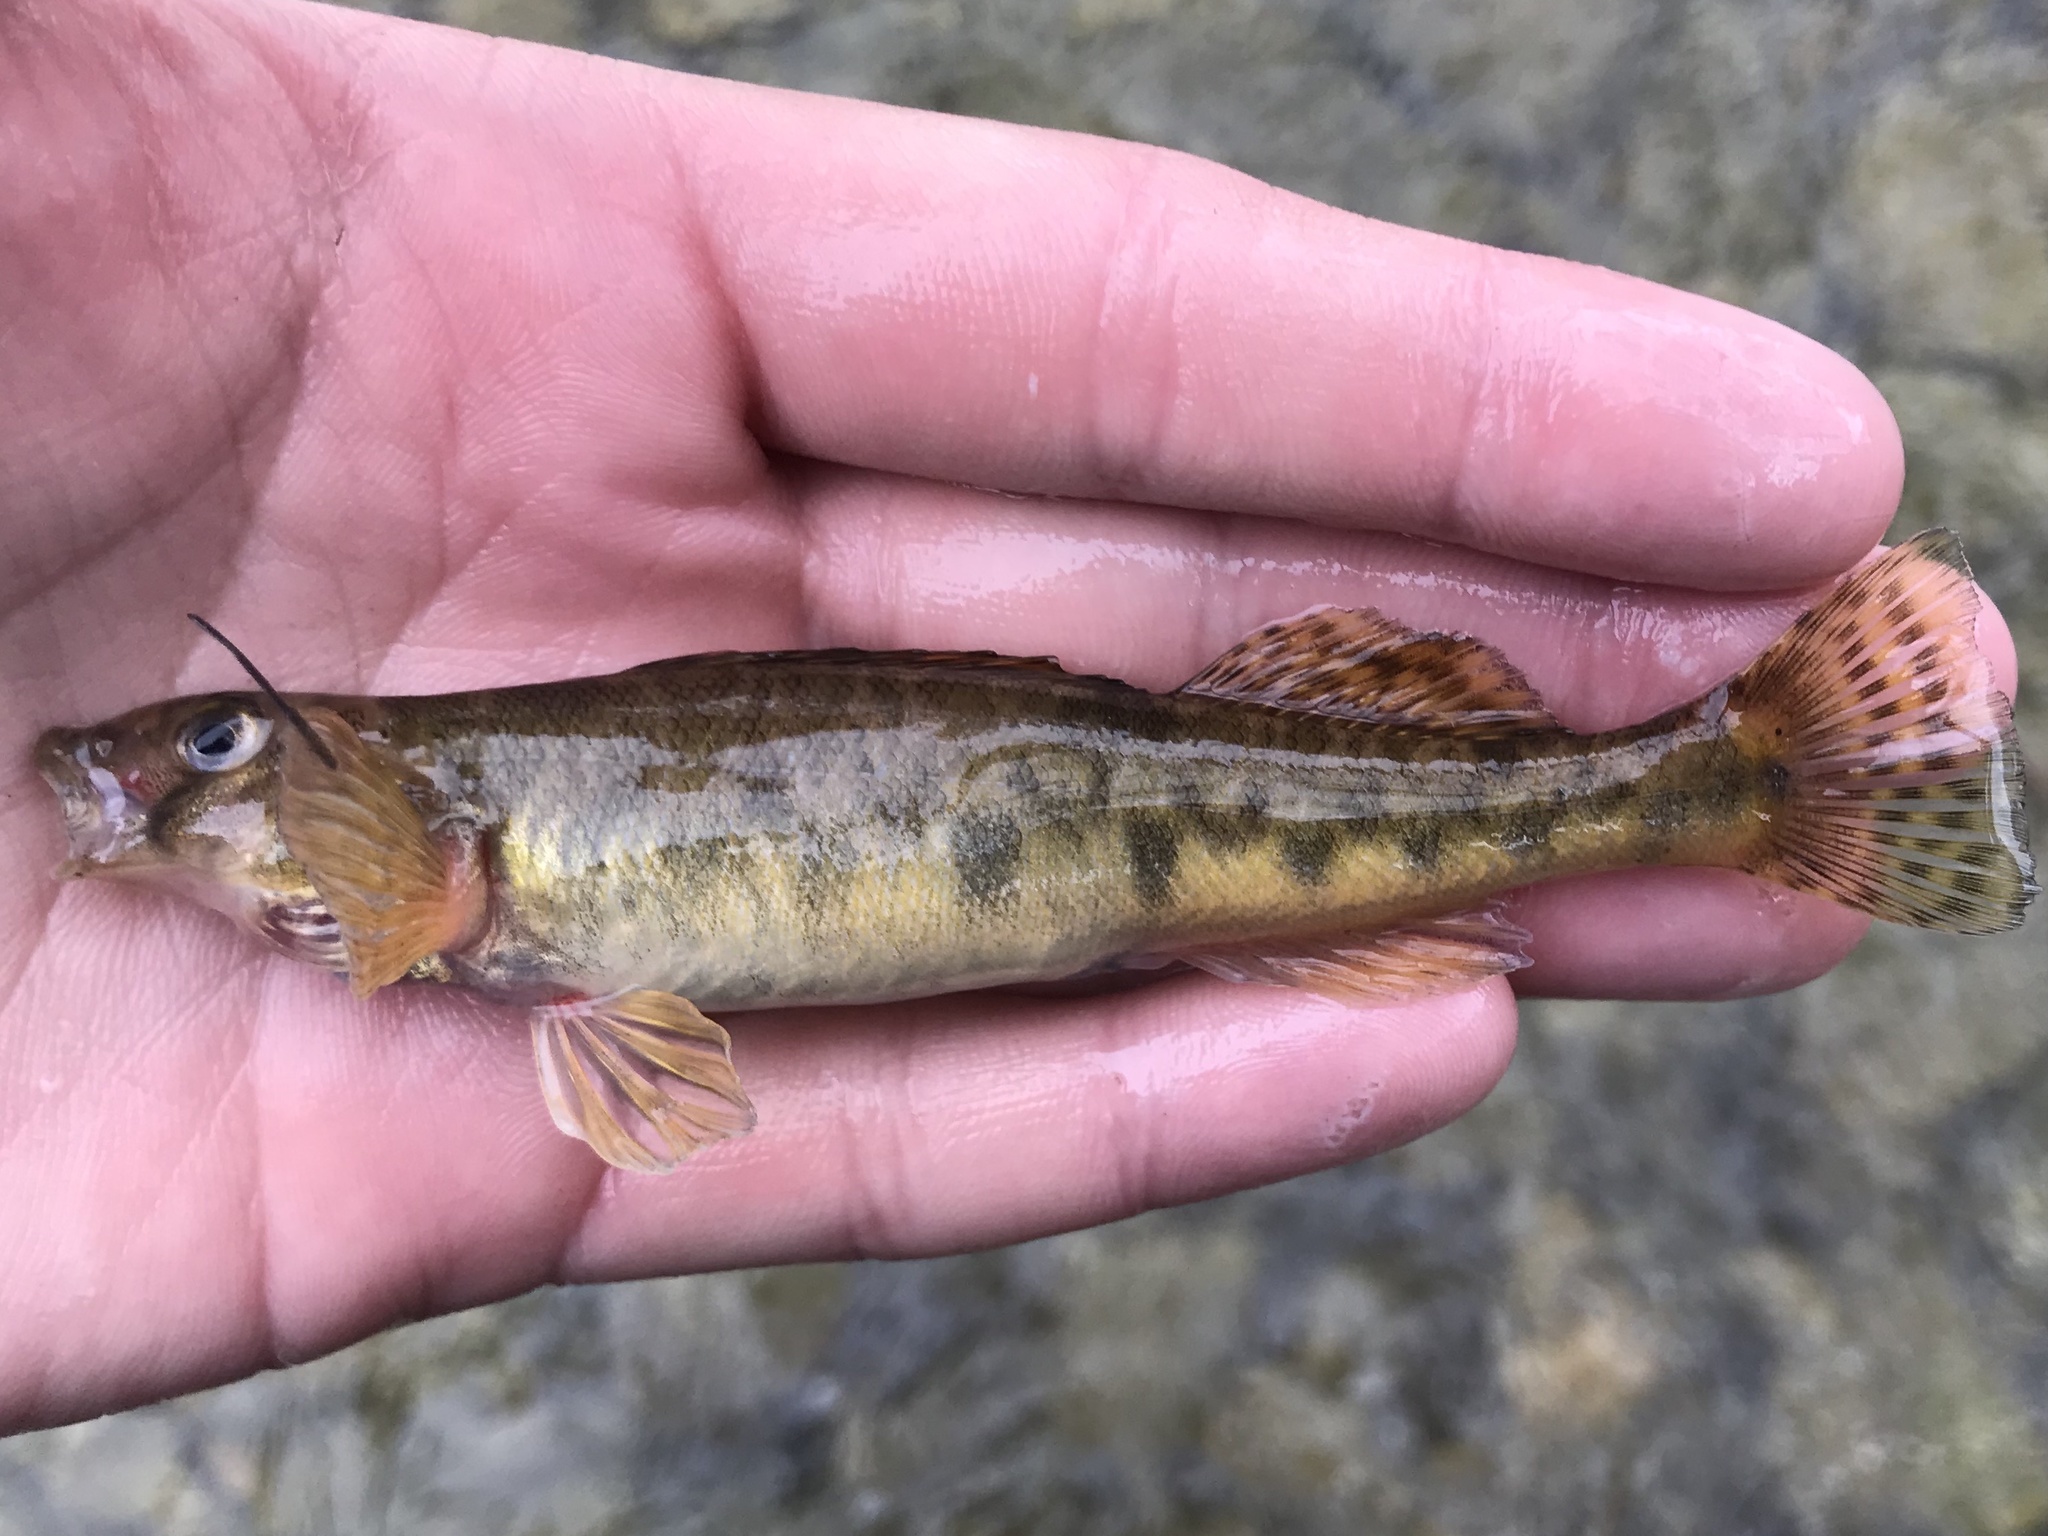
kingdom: Animalia
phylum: Chordata
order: Perciformes
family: Percidae
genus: Percina
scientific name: Percina carbonaria
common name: Texas logperch
